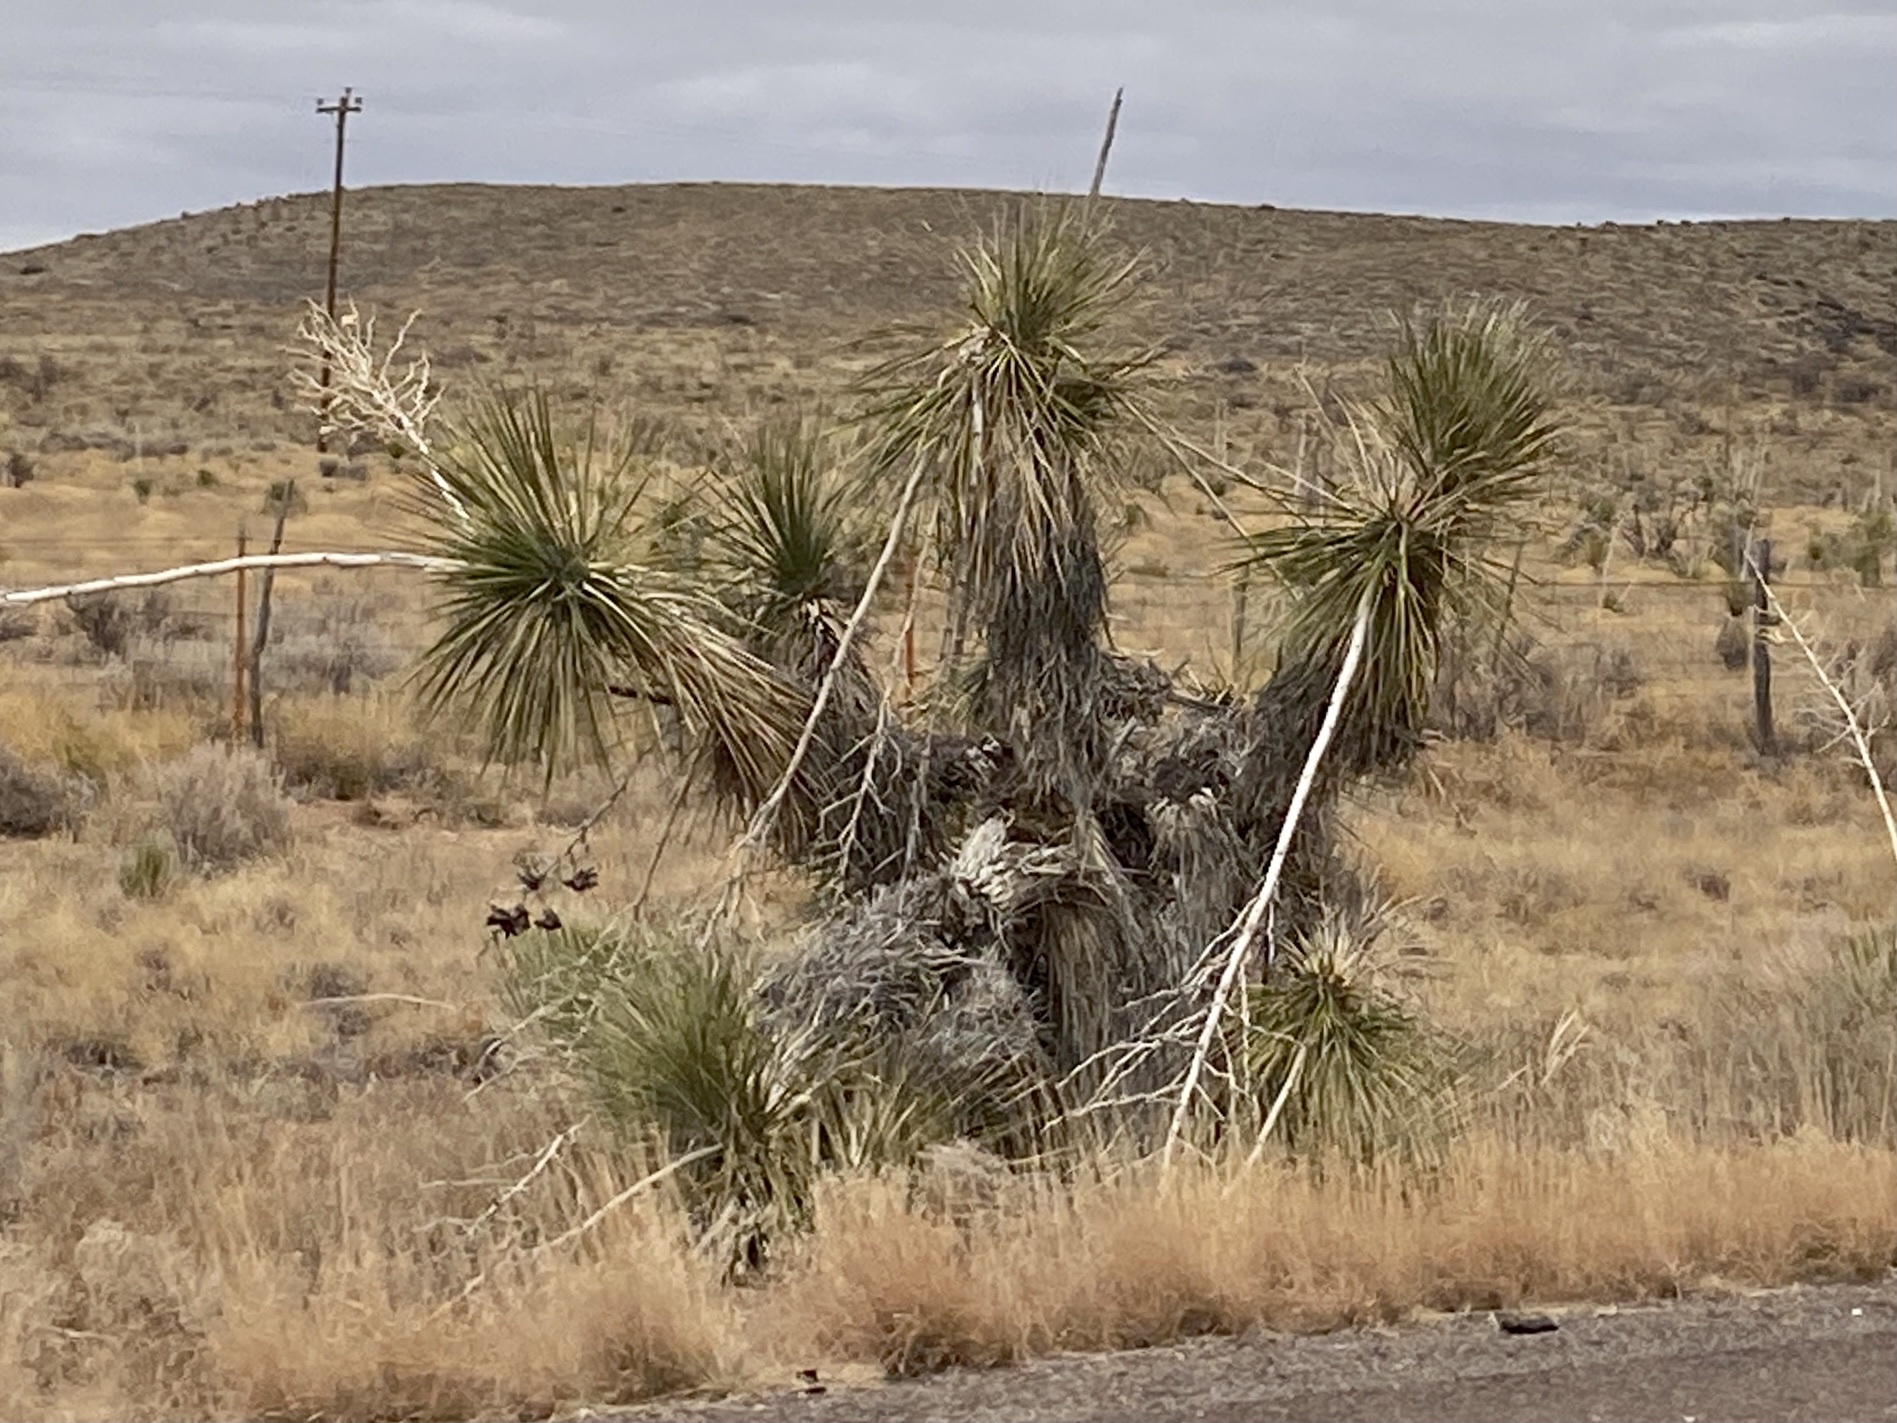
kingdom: Plantae
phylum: Tracheophyta
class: Liliopsida
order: Asparagales
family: Asparagaceae
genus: Yucca
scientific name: Yucca elata
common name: Palmella
